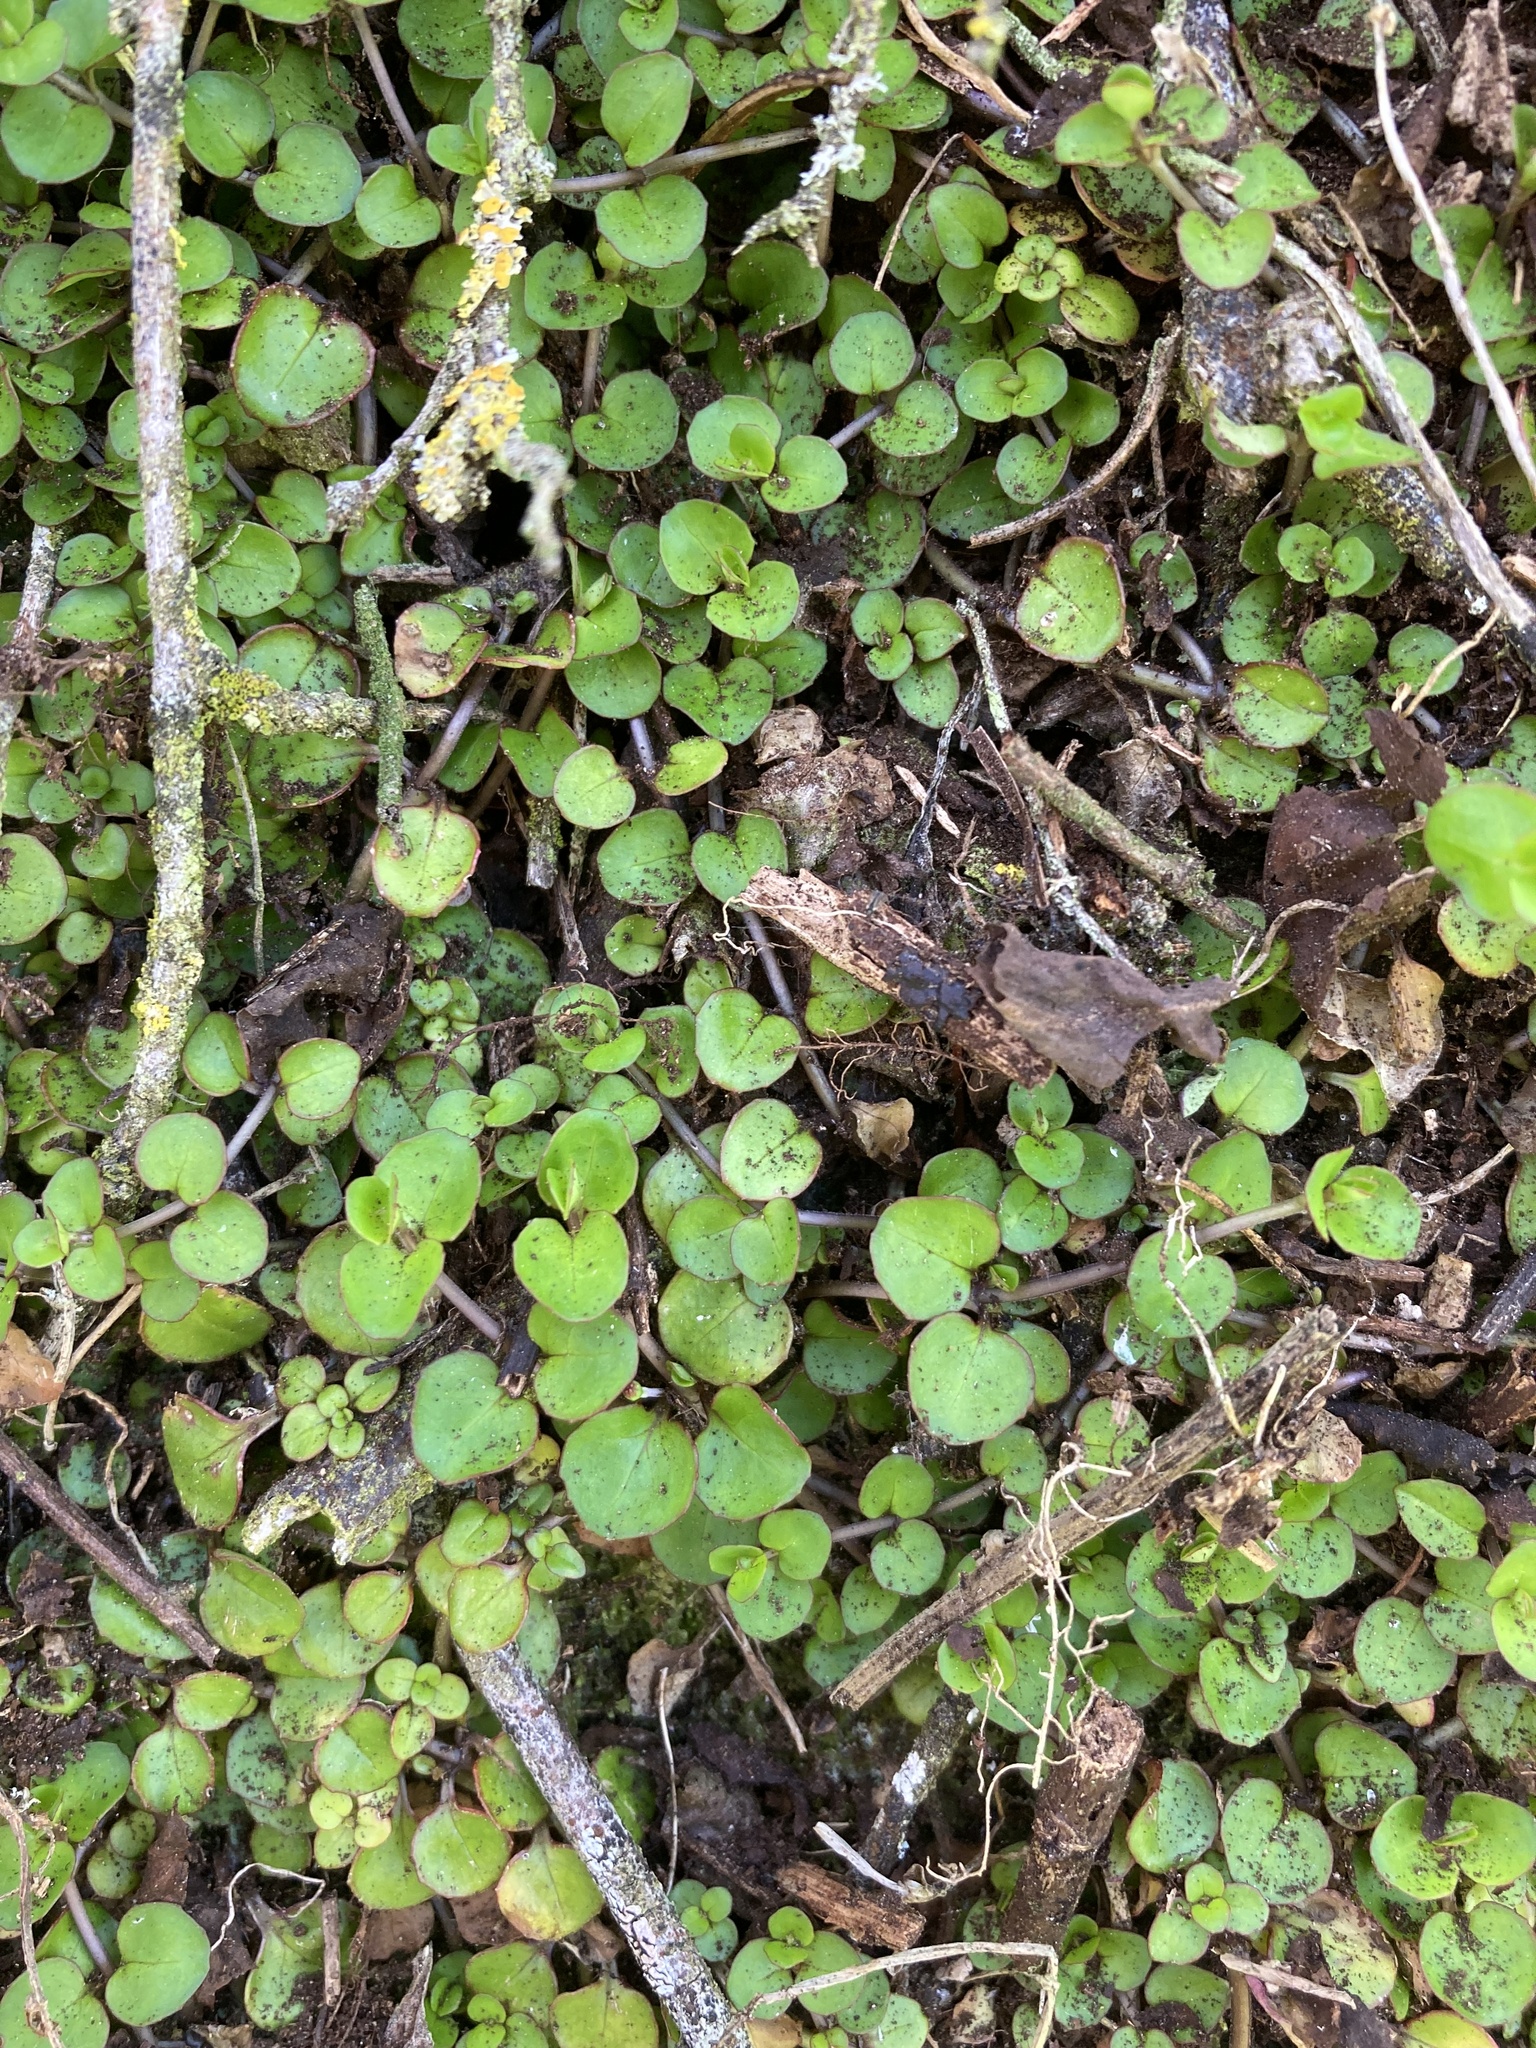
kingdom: Plantae
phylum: Tracheophyta
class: Magnoliopsida
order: Myrtales
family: Onagraceae
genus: Epilobium
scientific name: Epilobium nummularifolium
